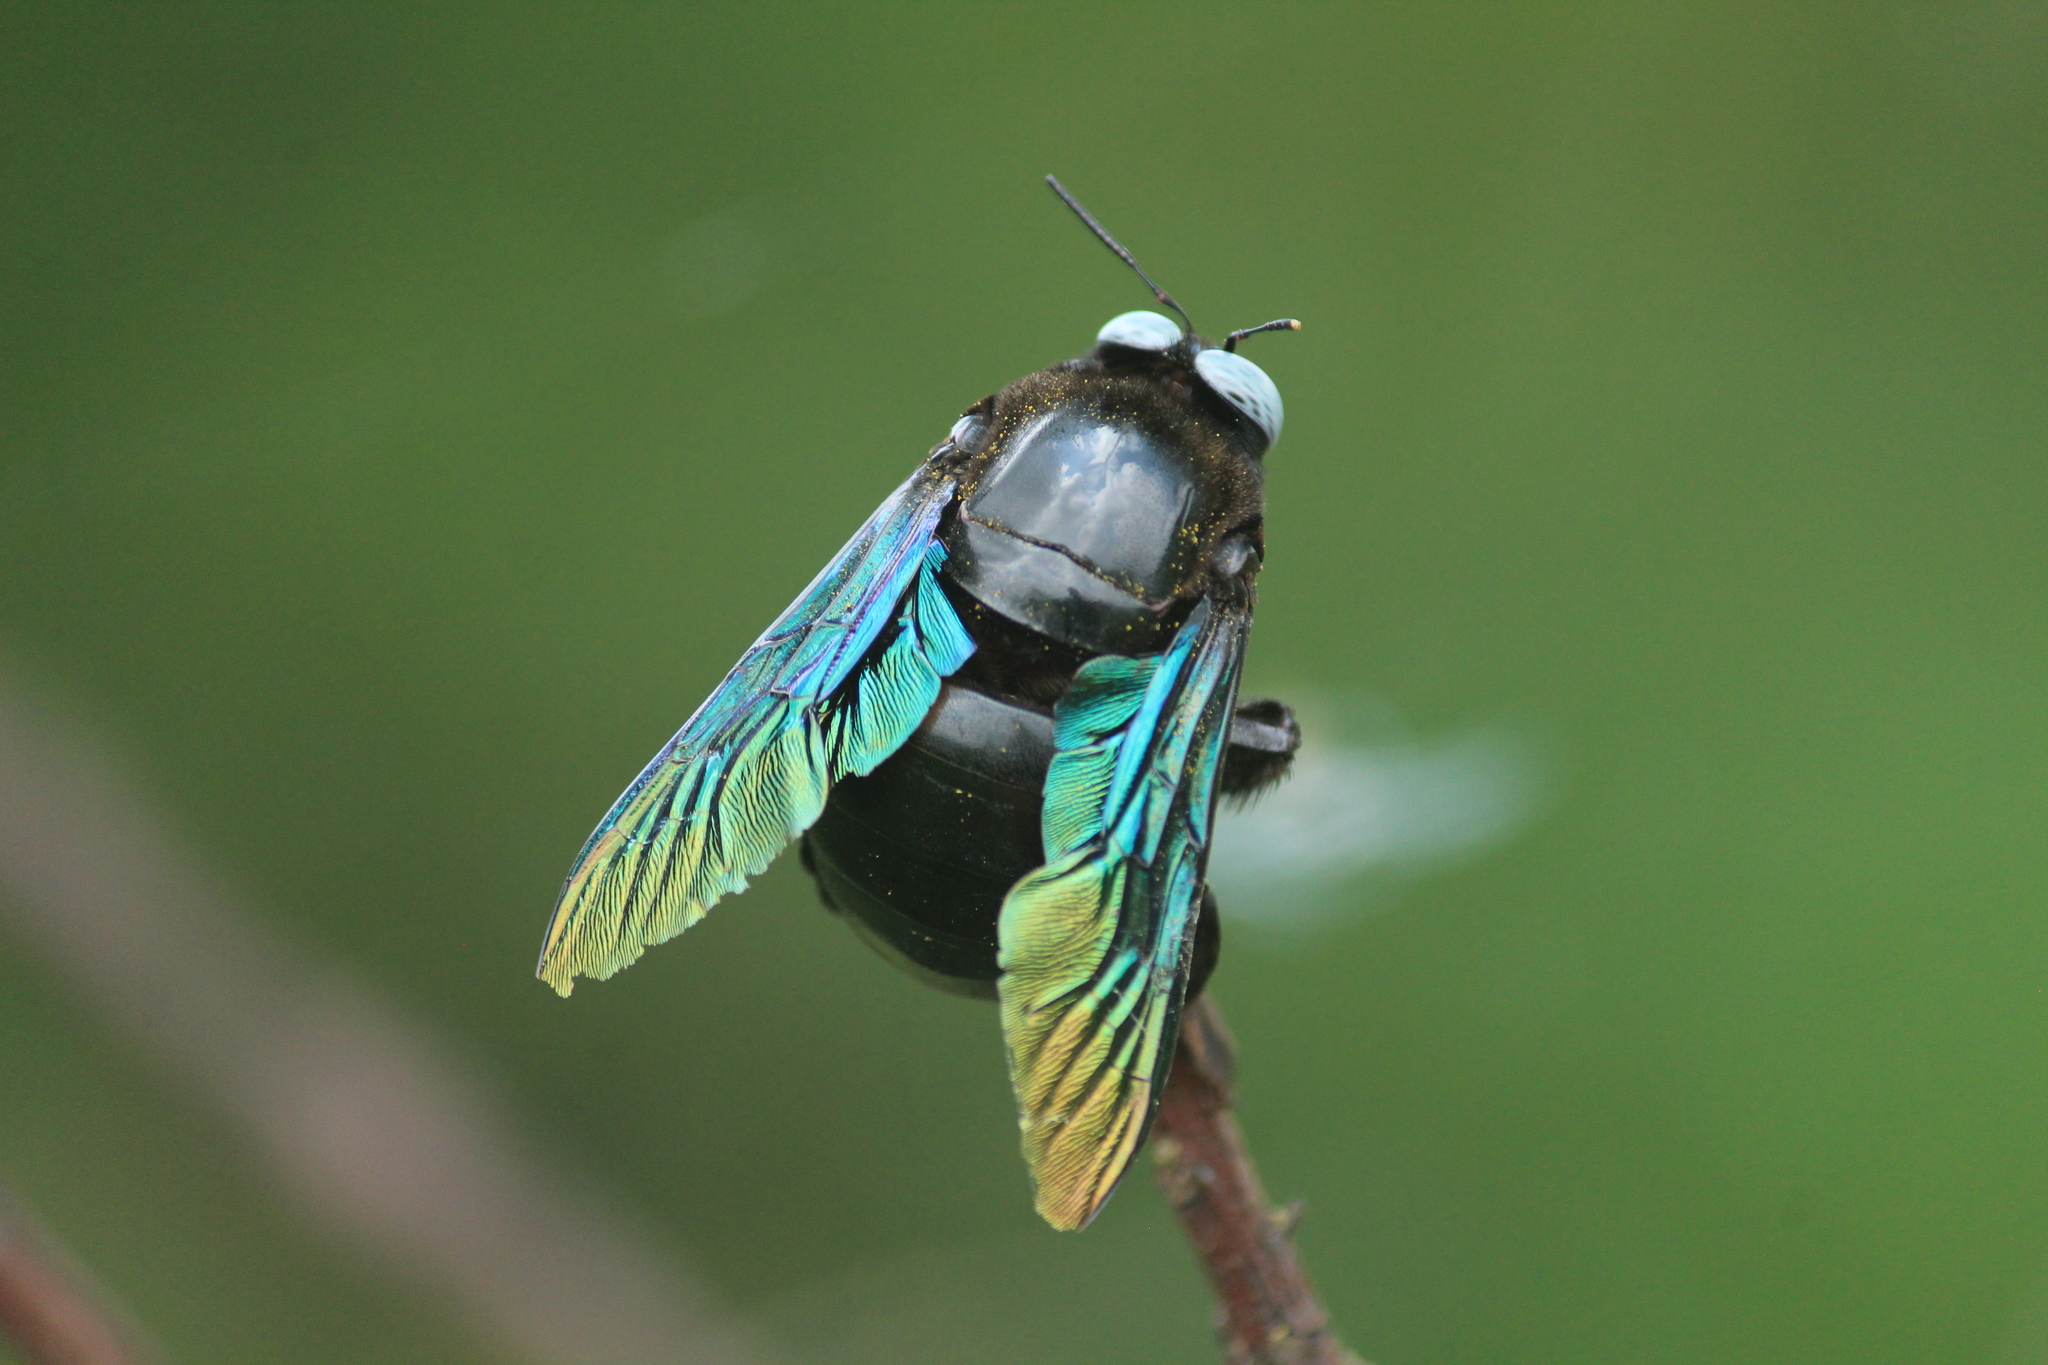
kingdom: Animalia
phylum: Arthropoda
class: Insecta
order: Hymenoptera
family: Apidae
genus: Xylocopa
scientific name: Xylocopa tenuiscapa
